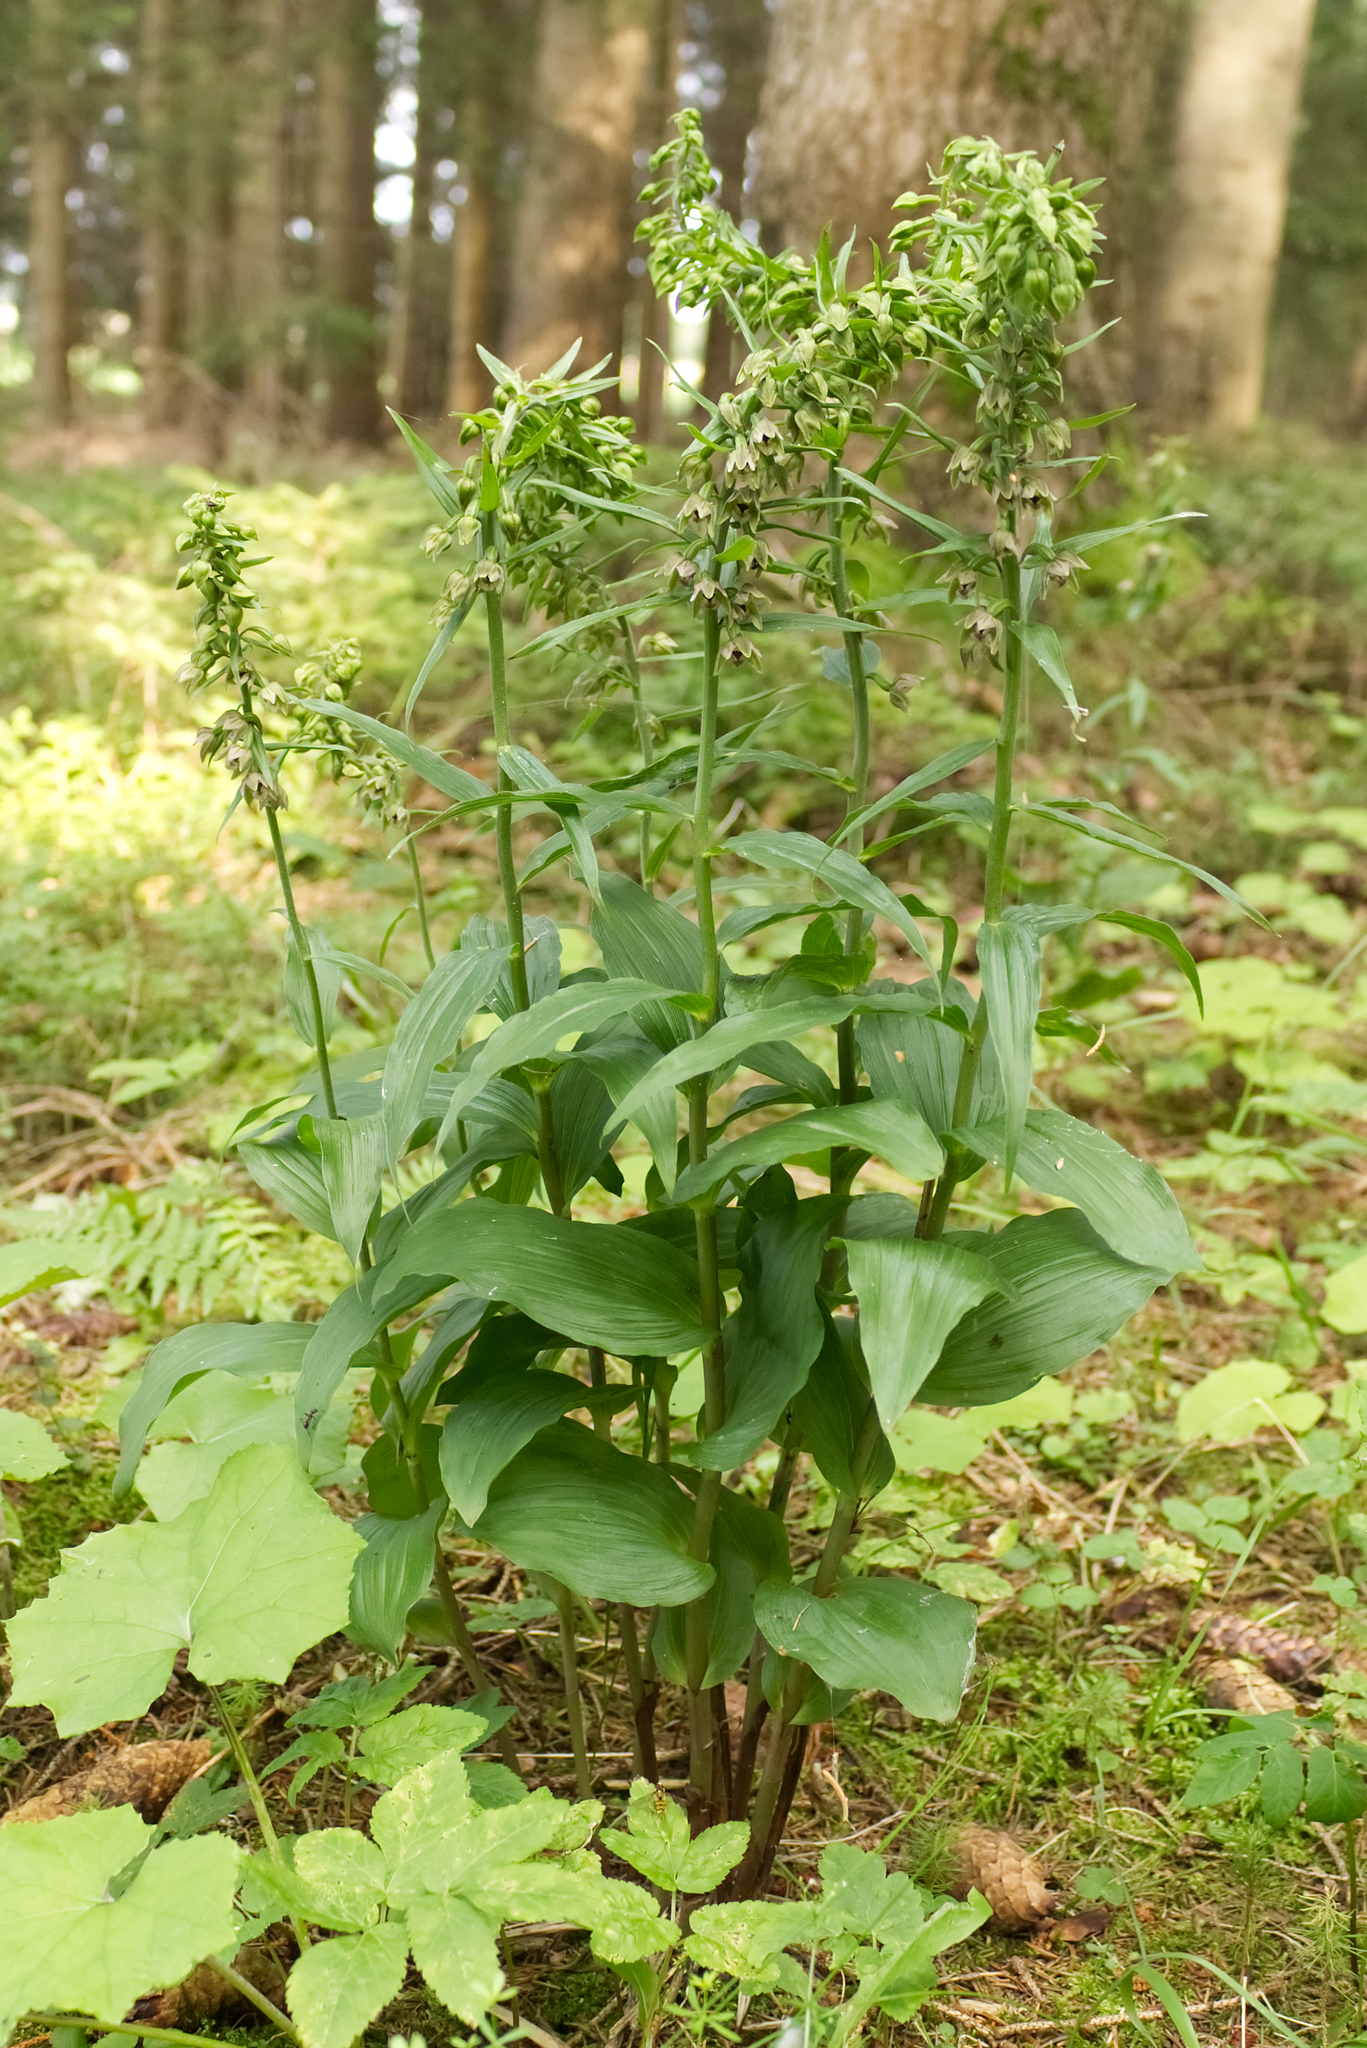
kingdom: Plantae
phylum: Tracheophyta
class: Liliopsida
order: Asparagales
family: Orchidaceae
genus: Epipactis
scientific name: Epipactis helleborine
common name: Broad-leaved helleborine
